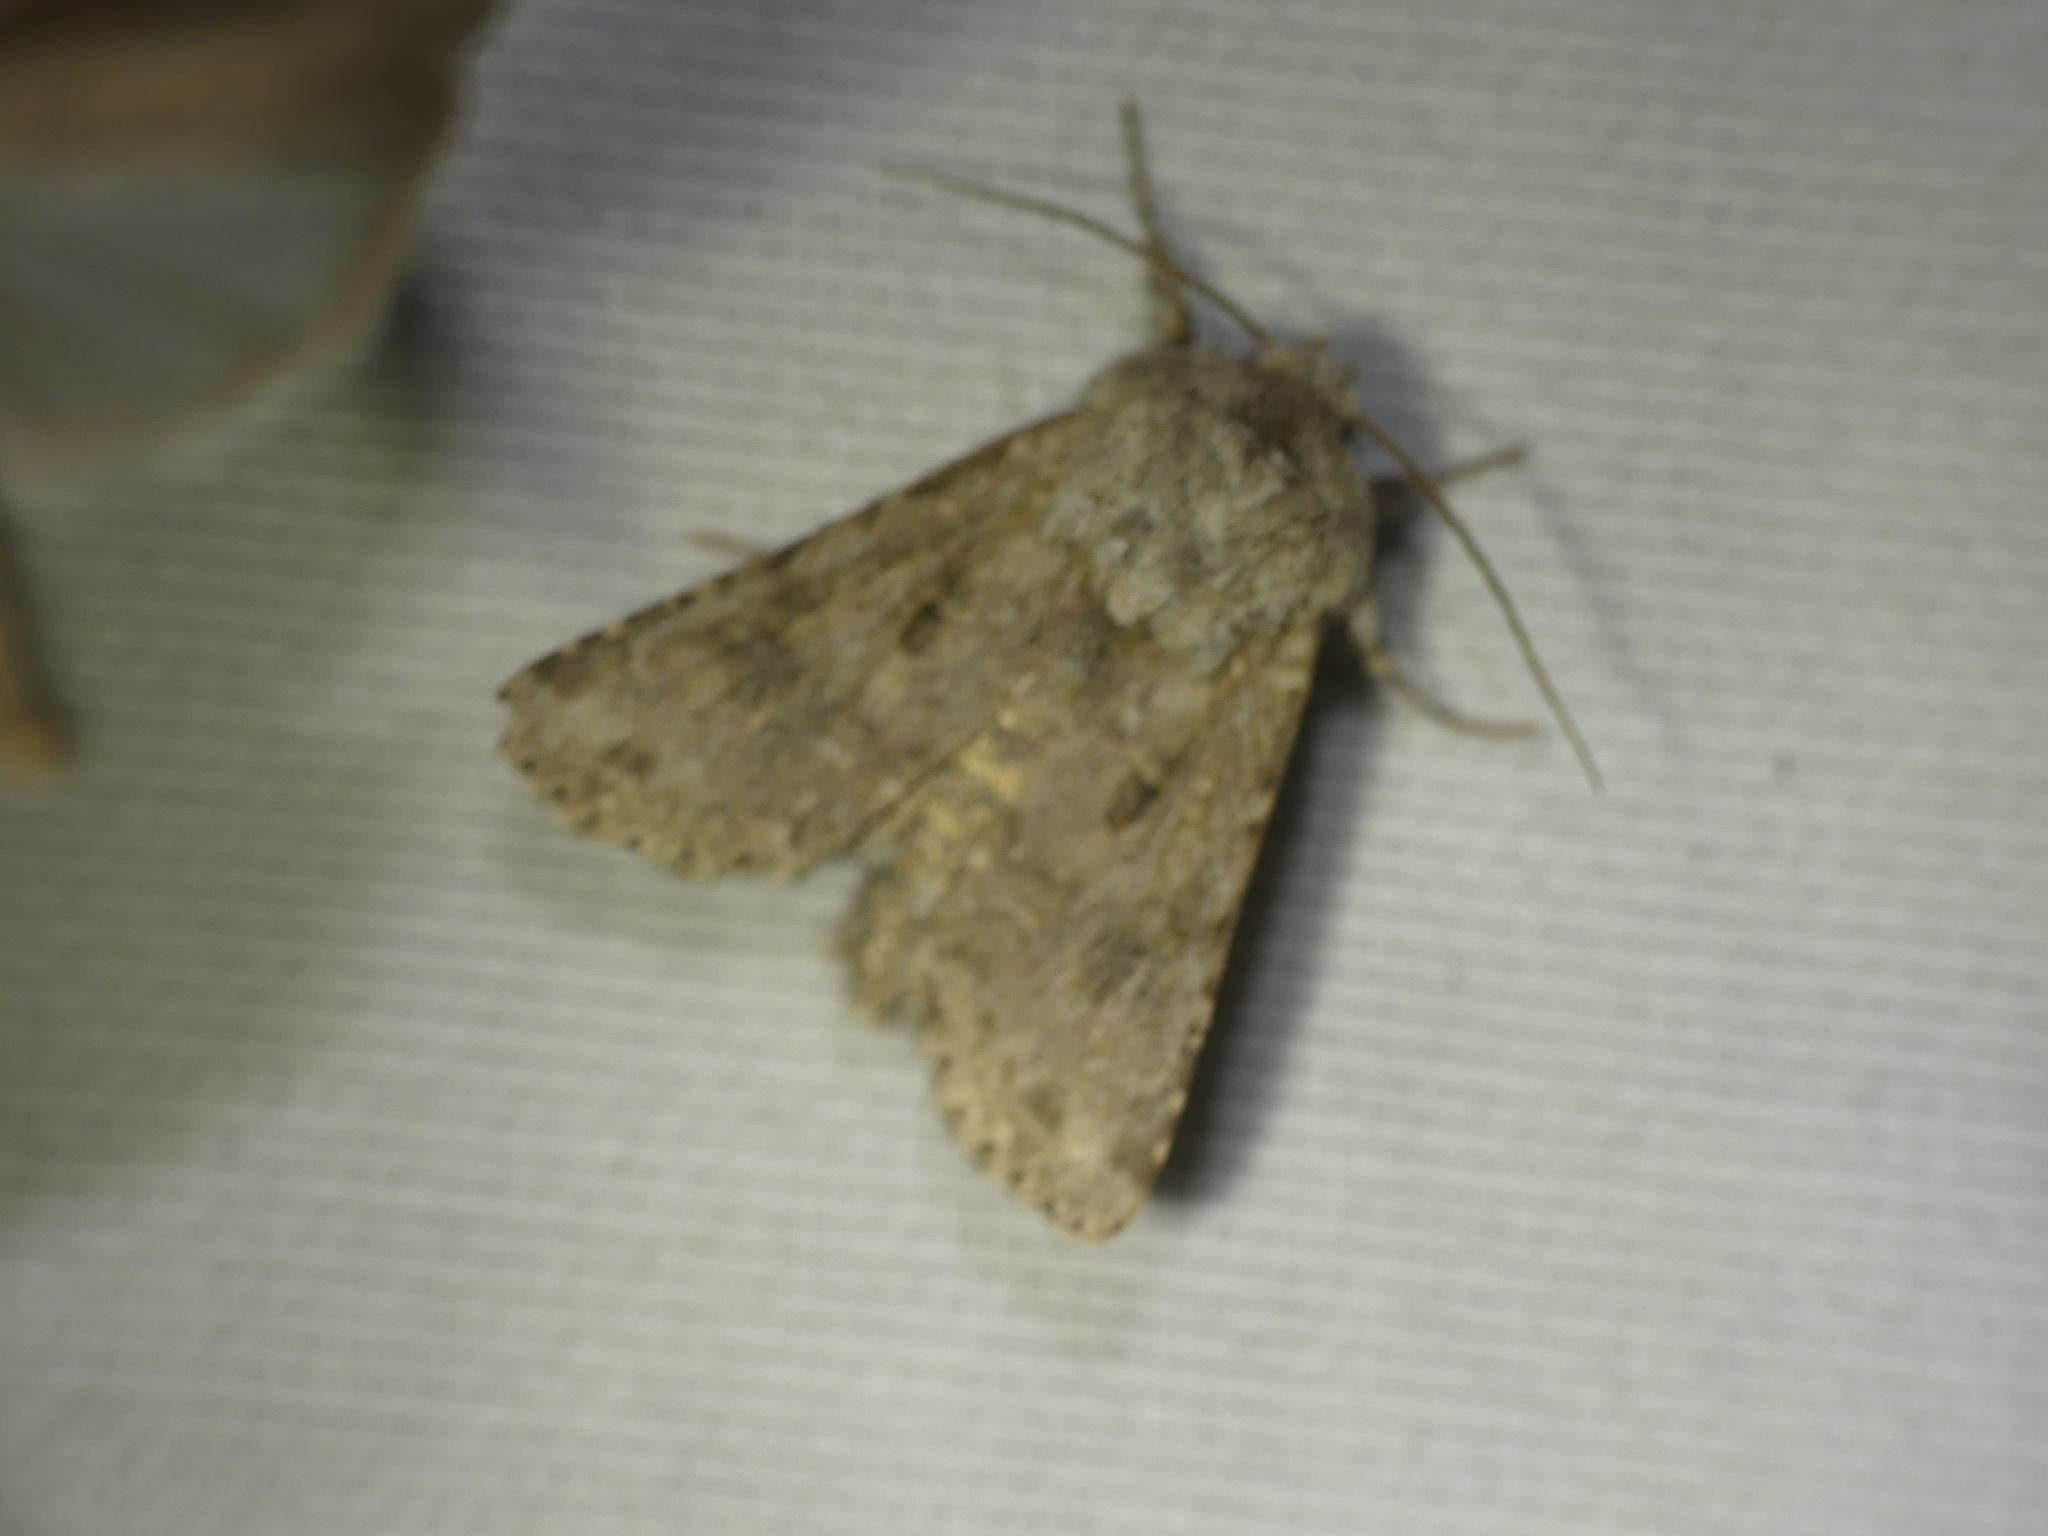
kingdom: Animalia
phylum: Arthropoda
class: Insecta
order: Lepidoptera
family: Noctuidae
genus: Anarta
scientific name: Anarta sodae
